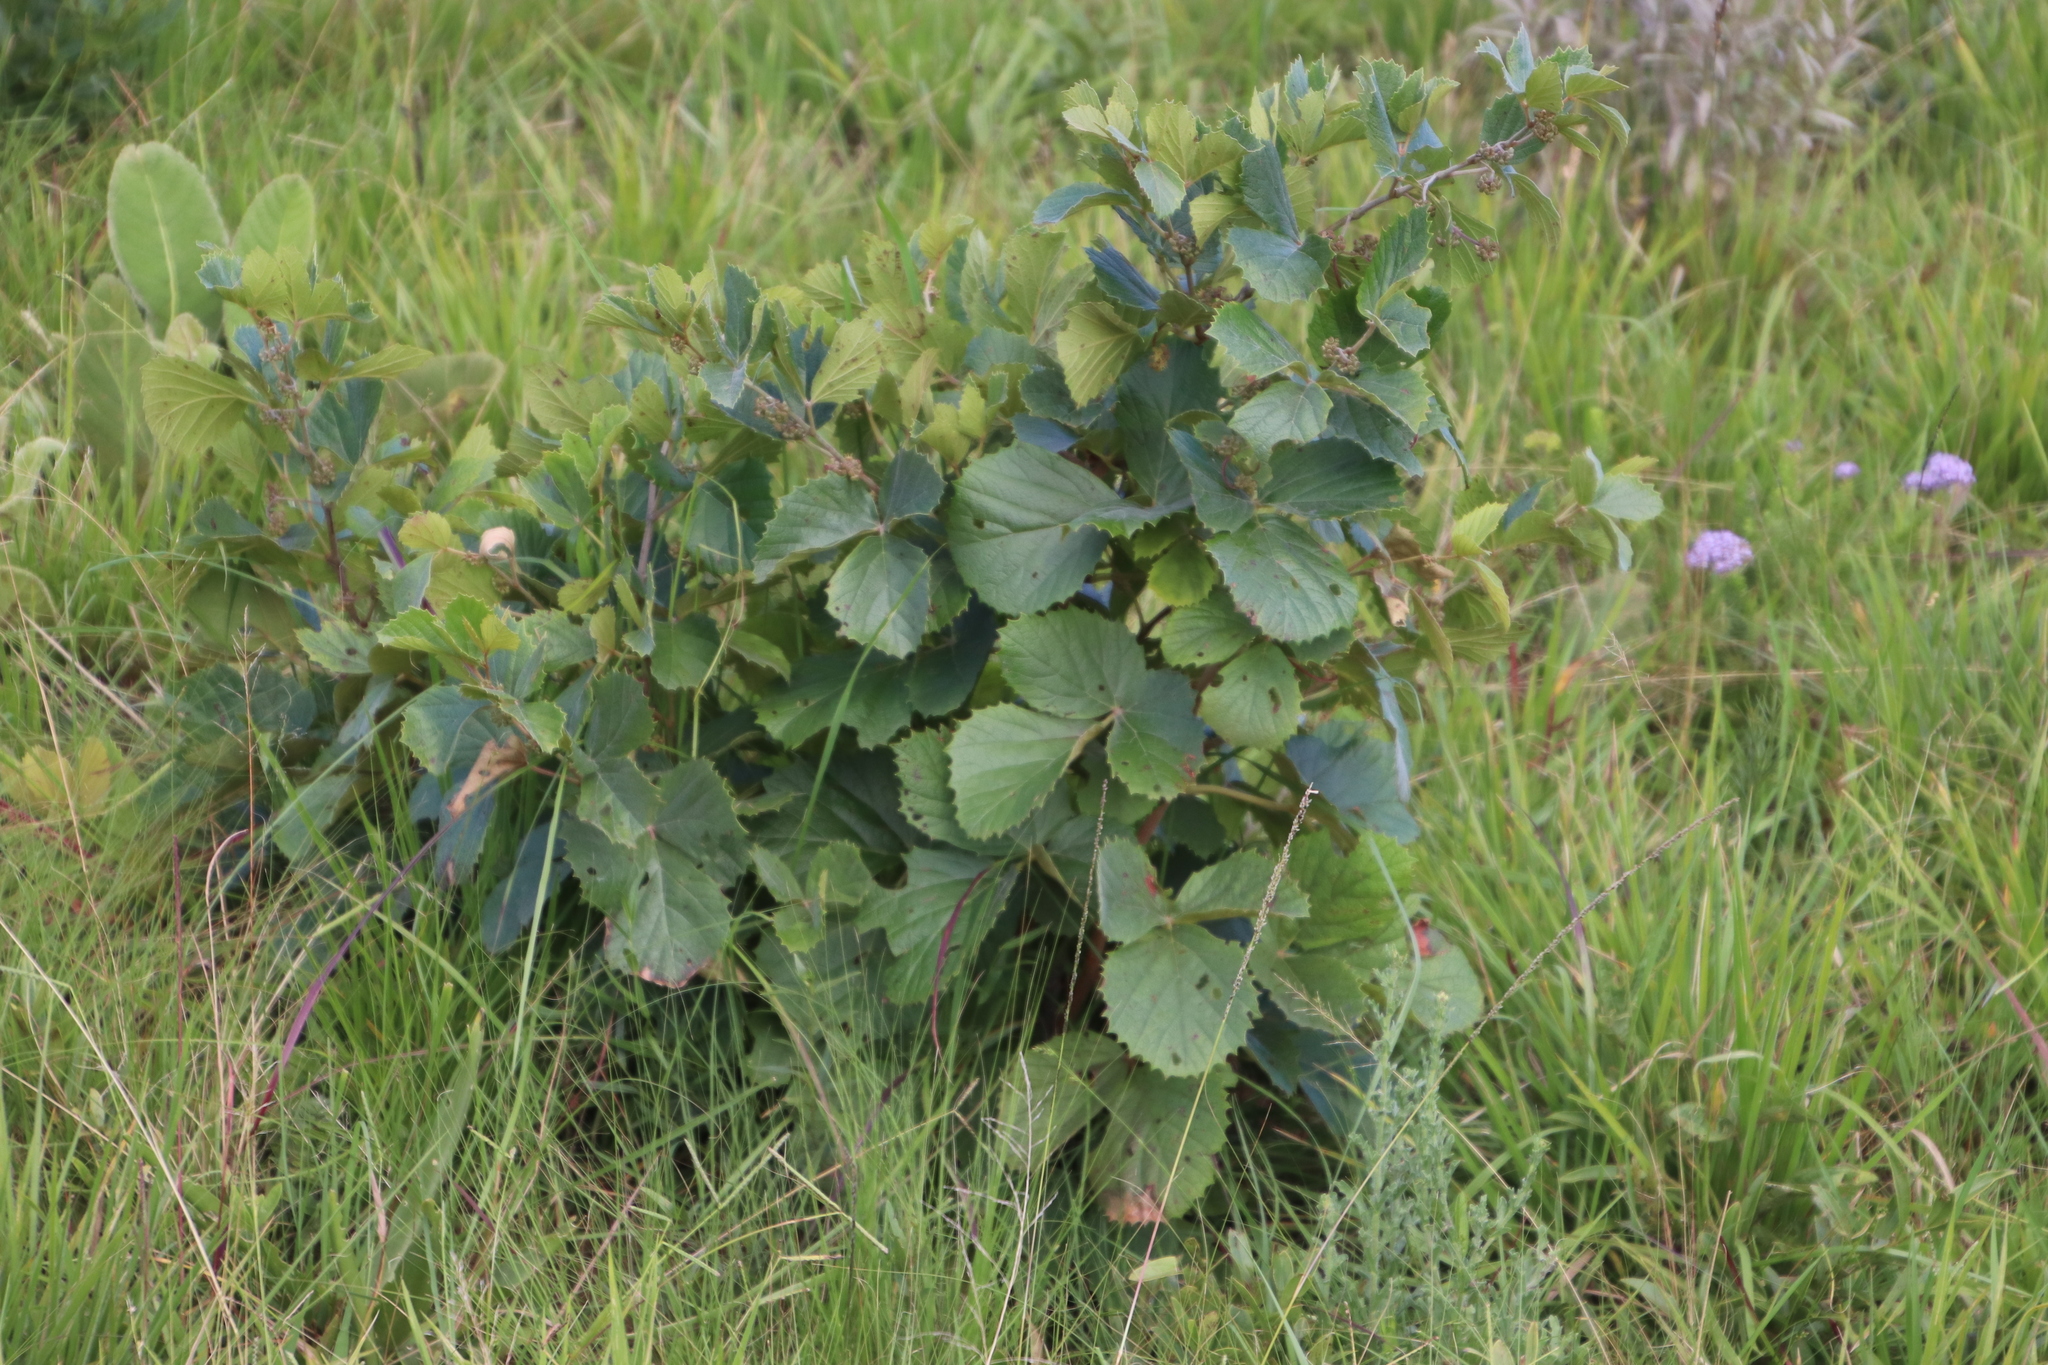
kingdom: Plantae
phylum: Tracheophyta
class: Magnoliopsida
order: Vitales
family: Vitaceae
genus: Rhoicissus
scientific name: Rhoicissus tridentata
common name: Common forest grape
